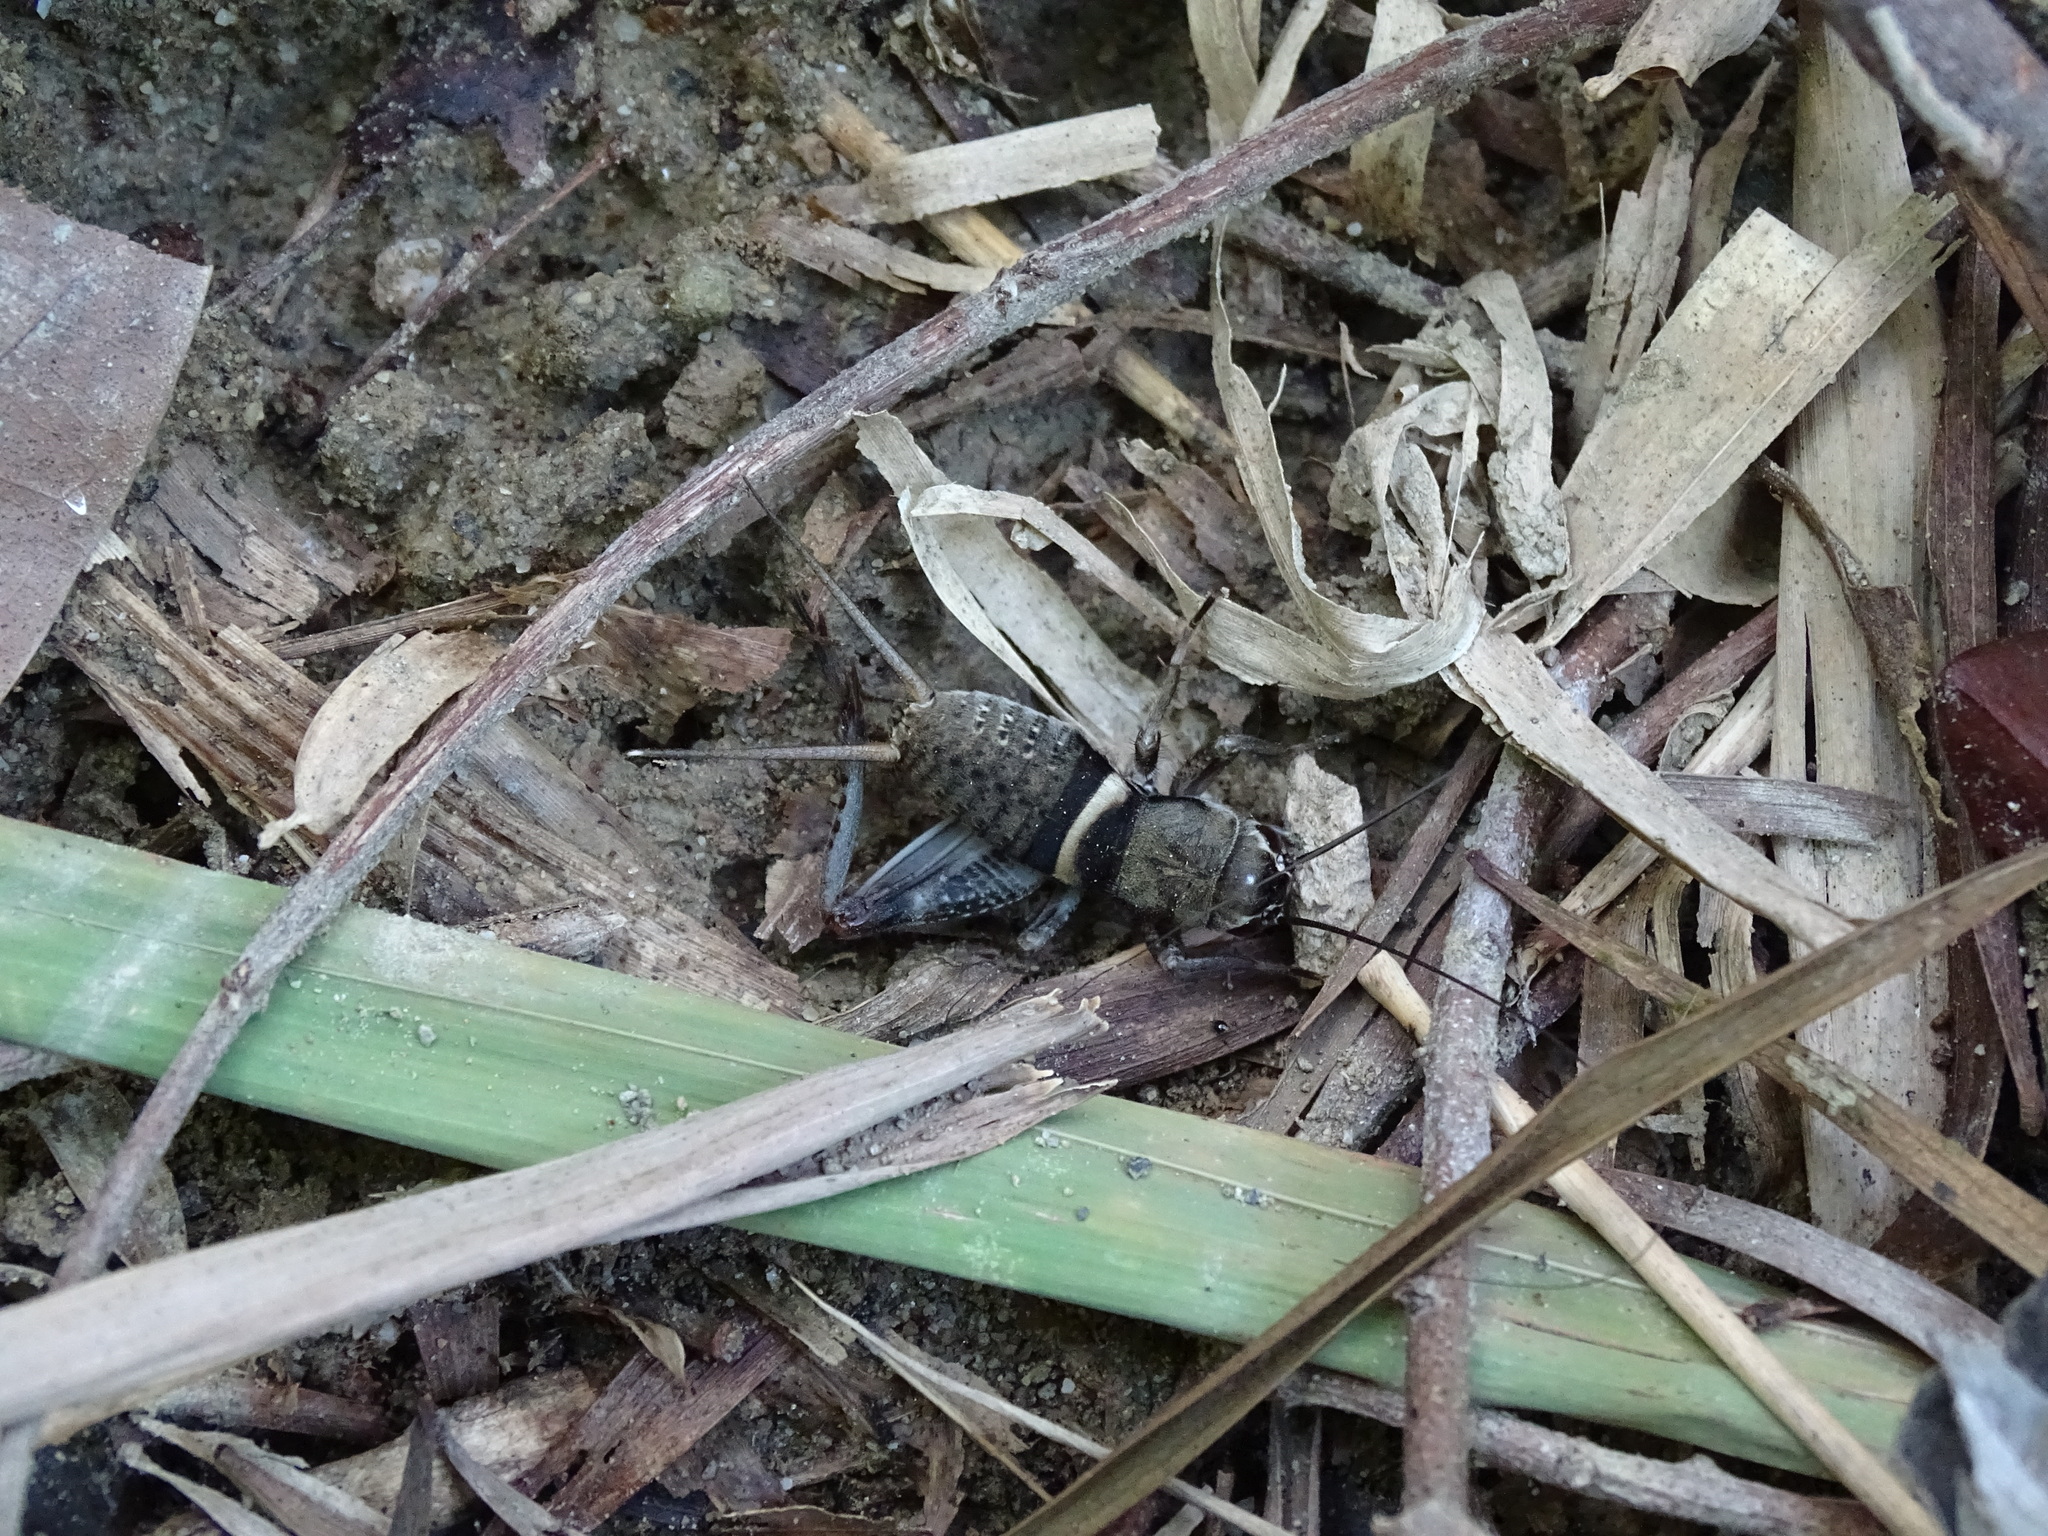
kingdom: Animalia
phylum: Arthropoda
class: Insecta
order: Orthoptera
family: Gryllidae
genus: Teleogryllus
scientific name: Teleogryllus mitratus
